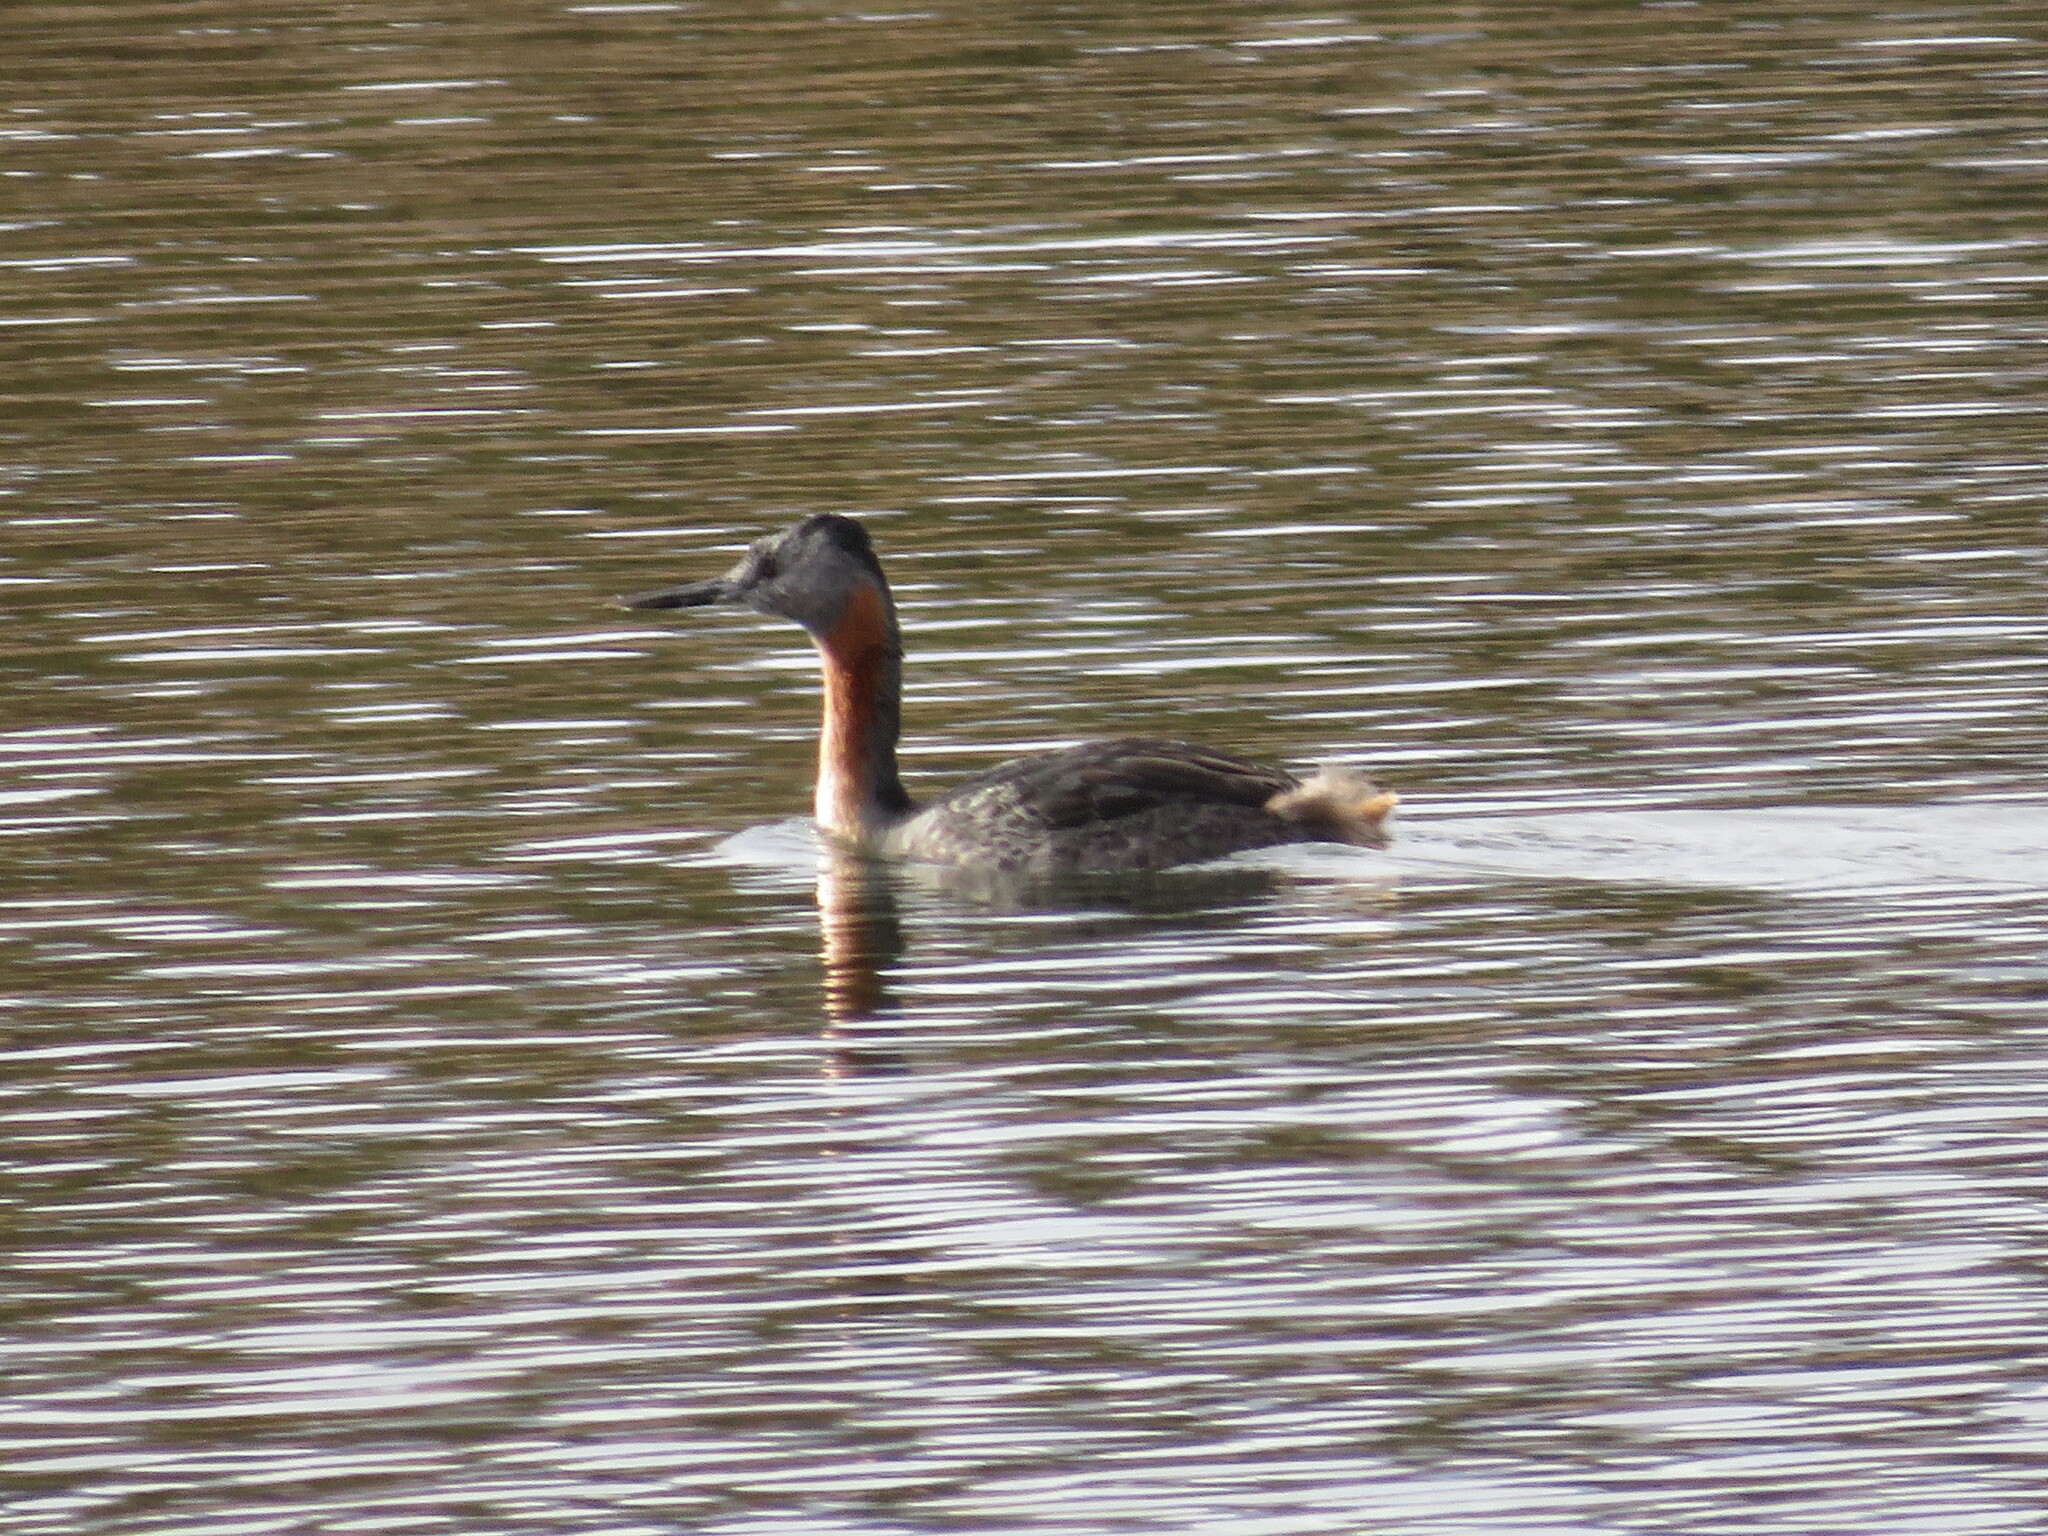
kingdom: Animalia
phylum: Chordata
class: Aves
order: Podicipediformes
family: Podicipedidae
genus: Podiceps
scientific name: Podiceps major
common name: Great grebe
